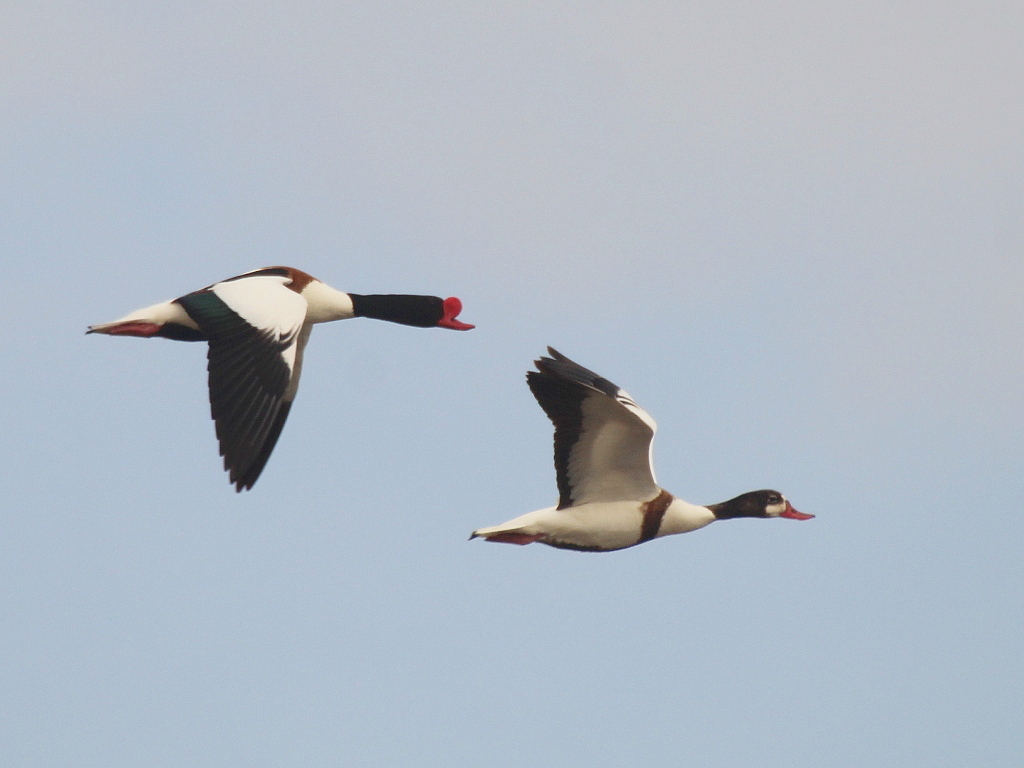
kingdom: Animalia
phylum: Chordata
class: Aves
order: Anseriformes
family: Anatidae
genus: Tadorna
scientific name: Tadorna tadorna
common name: Common shelduck
